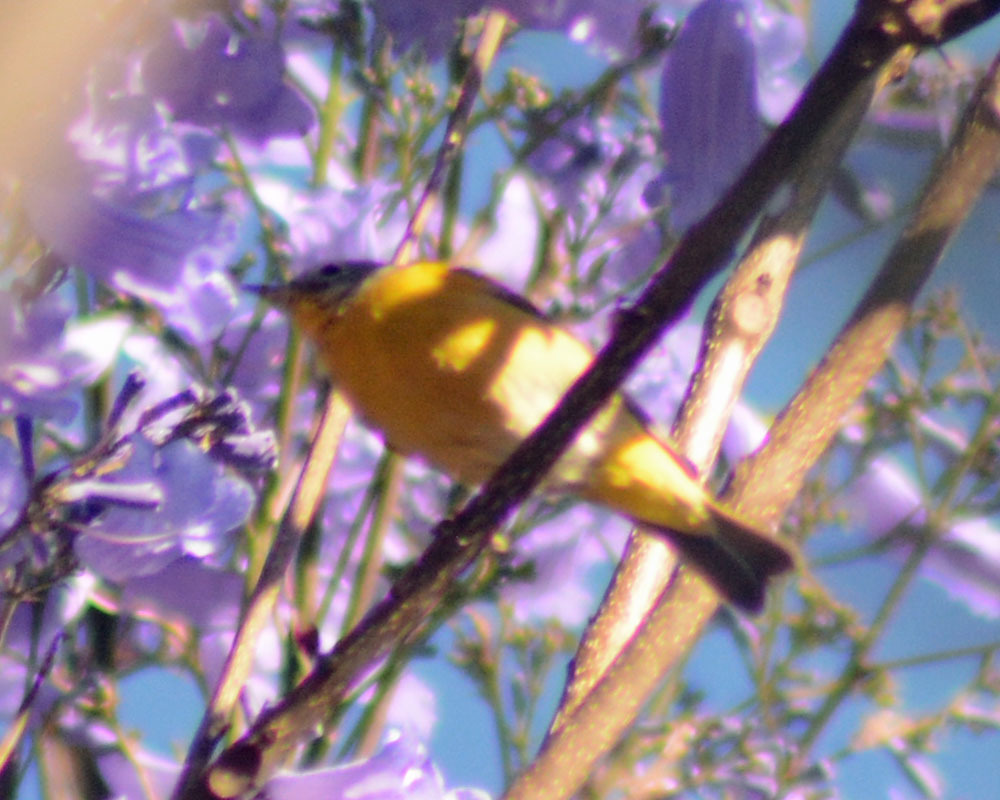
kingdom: Animalia
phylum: Chordata
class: Aves
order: Passeriformes
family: Parulidae
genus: Leiothlypis
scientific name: Leiothlypis ruficapilla
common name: Nashville warbler
